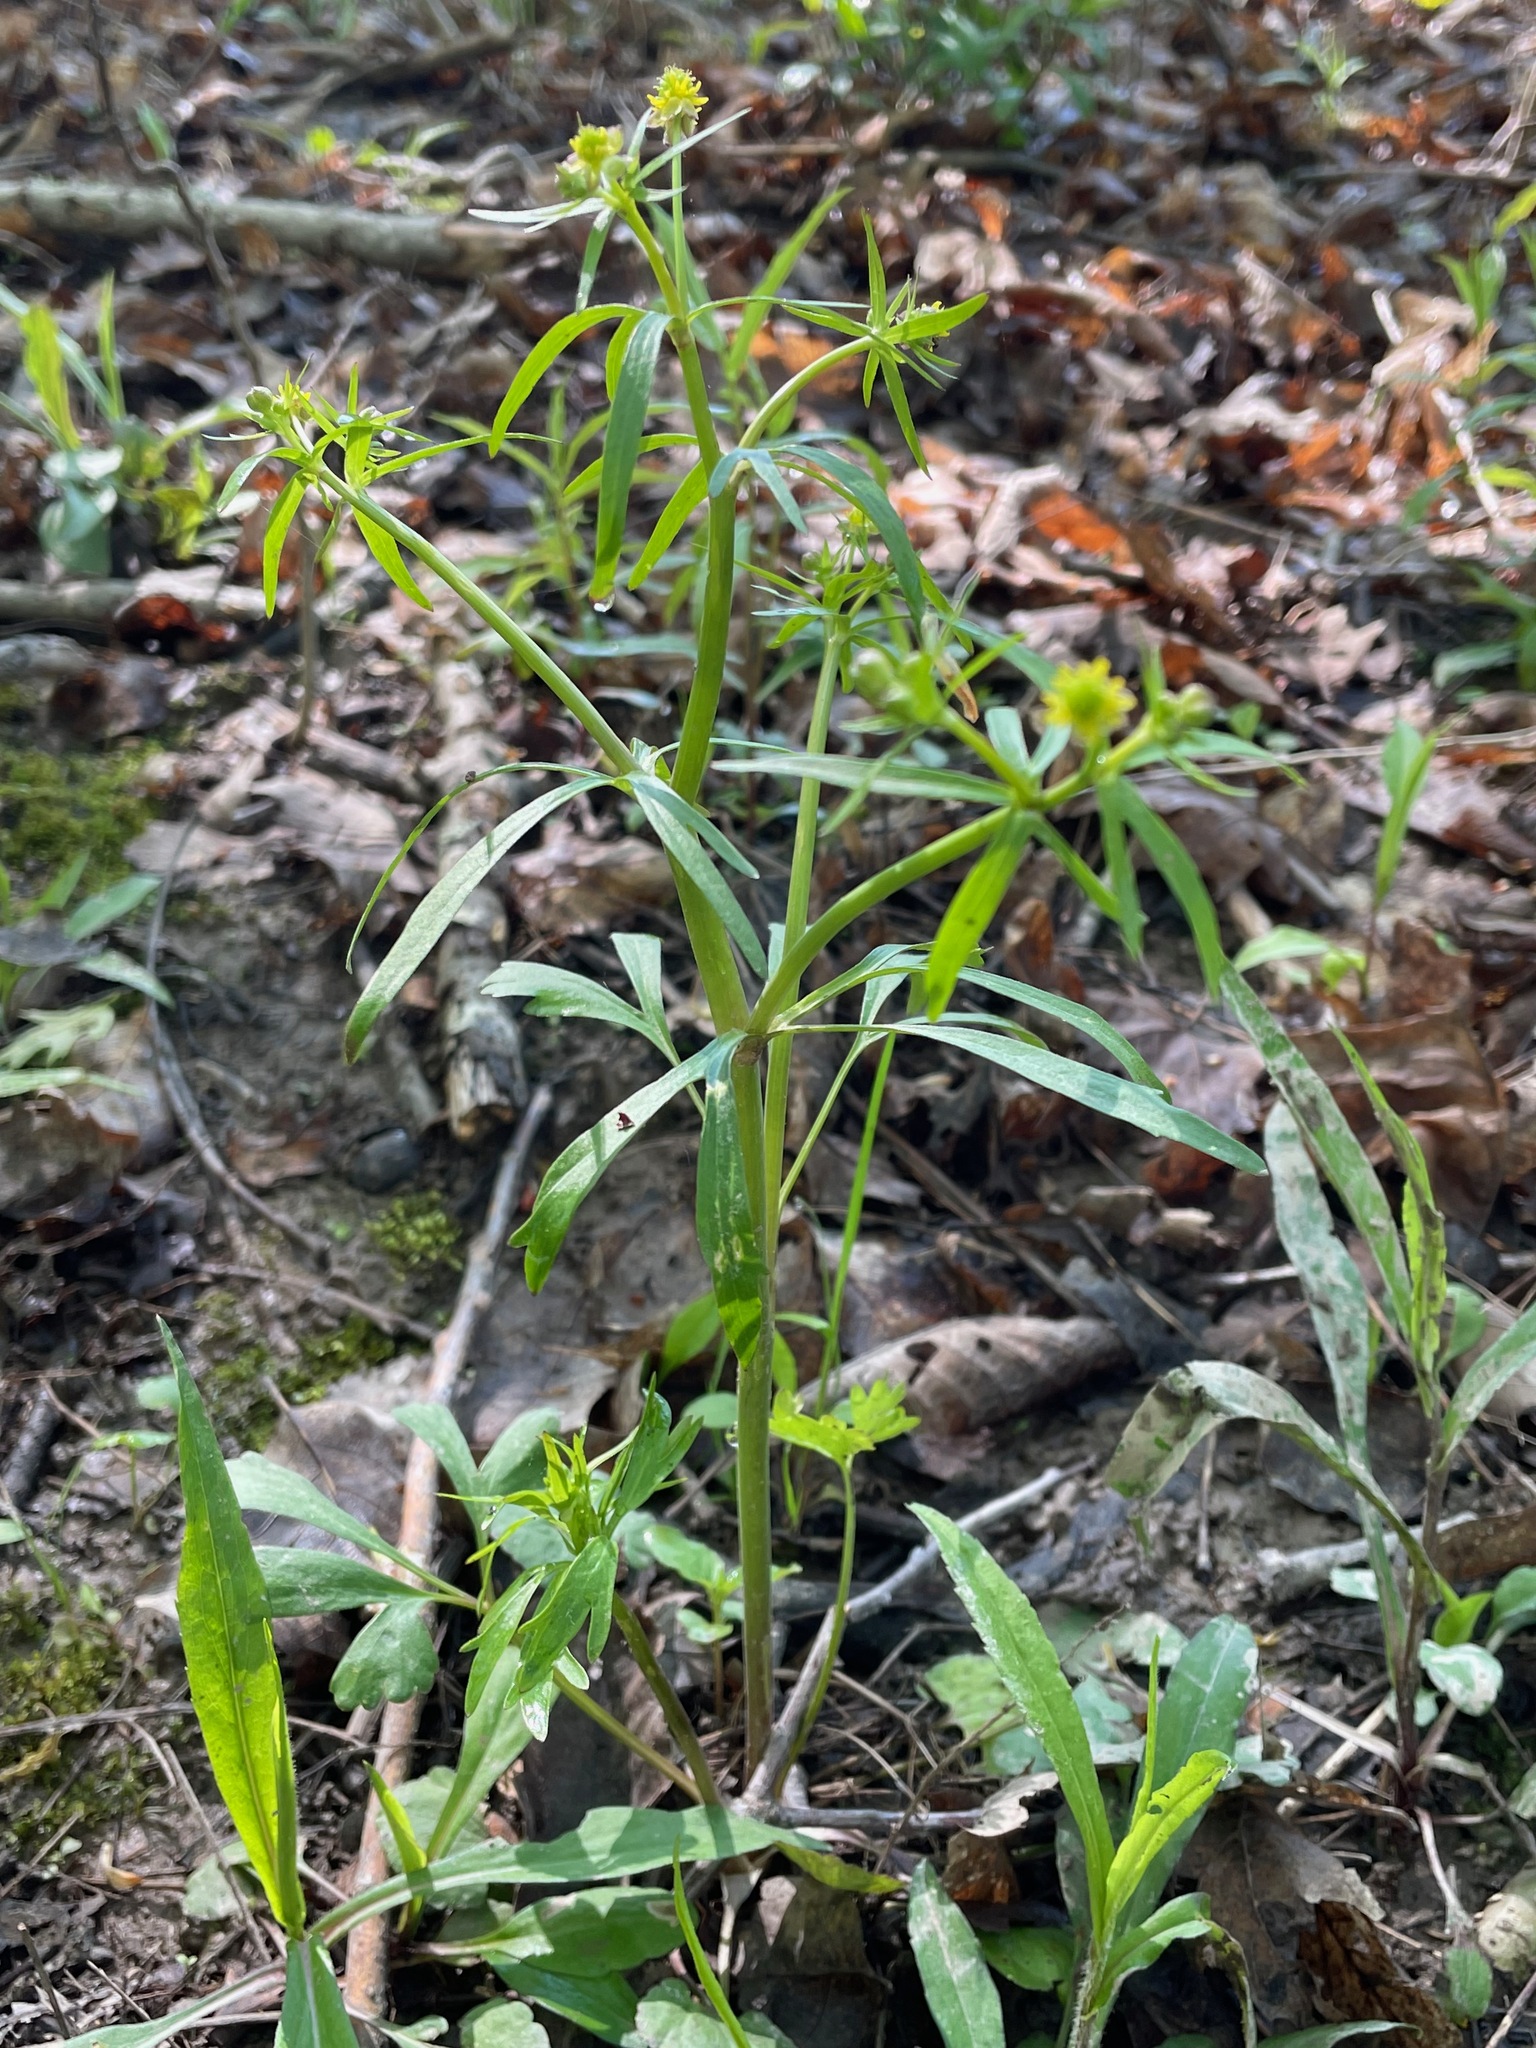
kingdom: Plantae
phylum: Tracheophyta
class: Magnoliopsida
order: Ranunculales
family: Ranunculaceae
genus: Ranunculus
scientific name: Ranunculus abortivus
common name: Early wood buttercup
